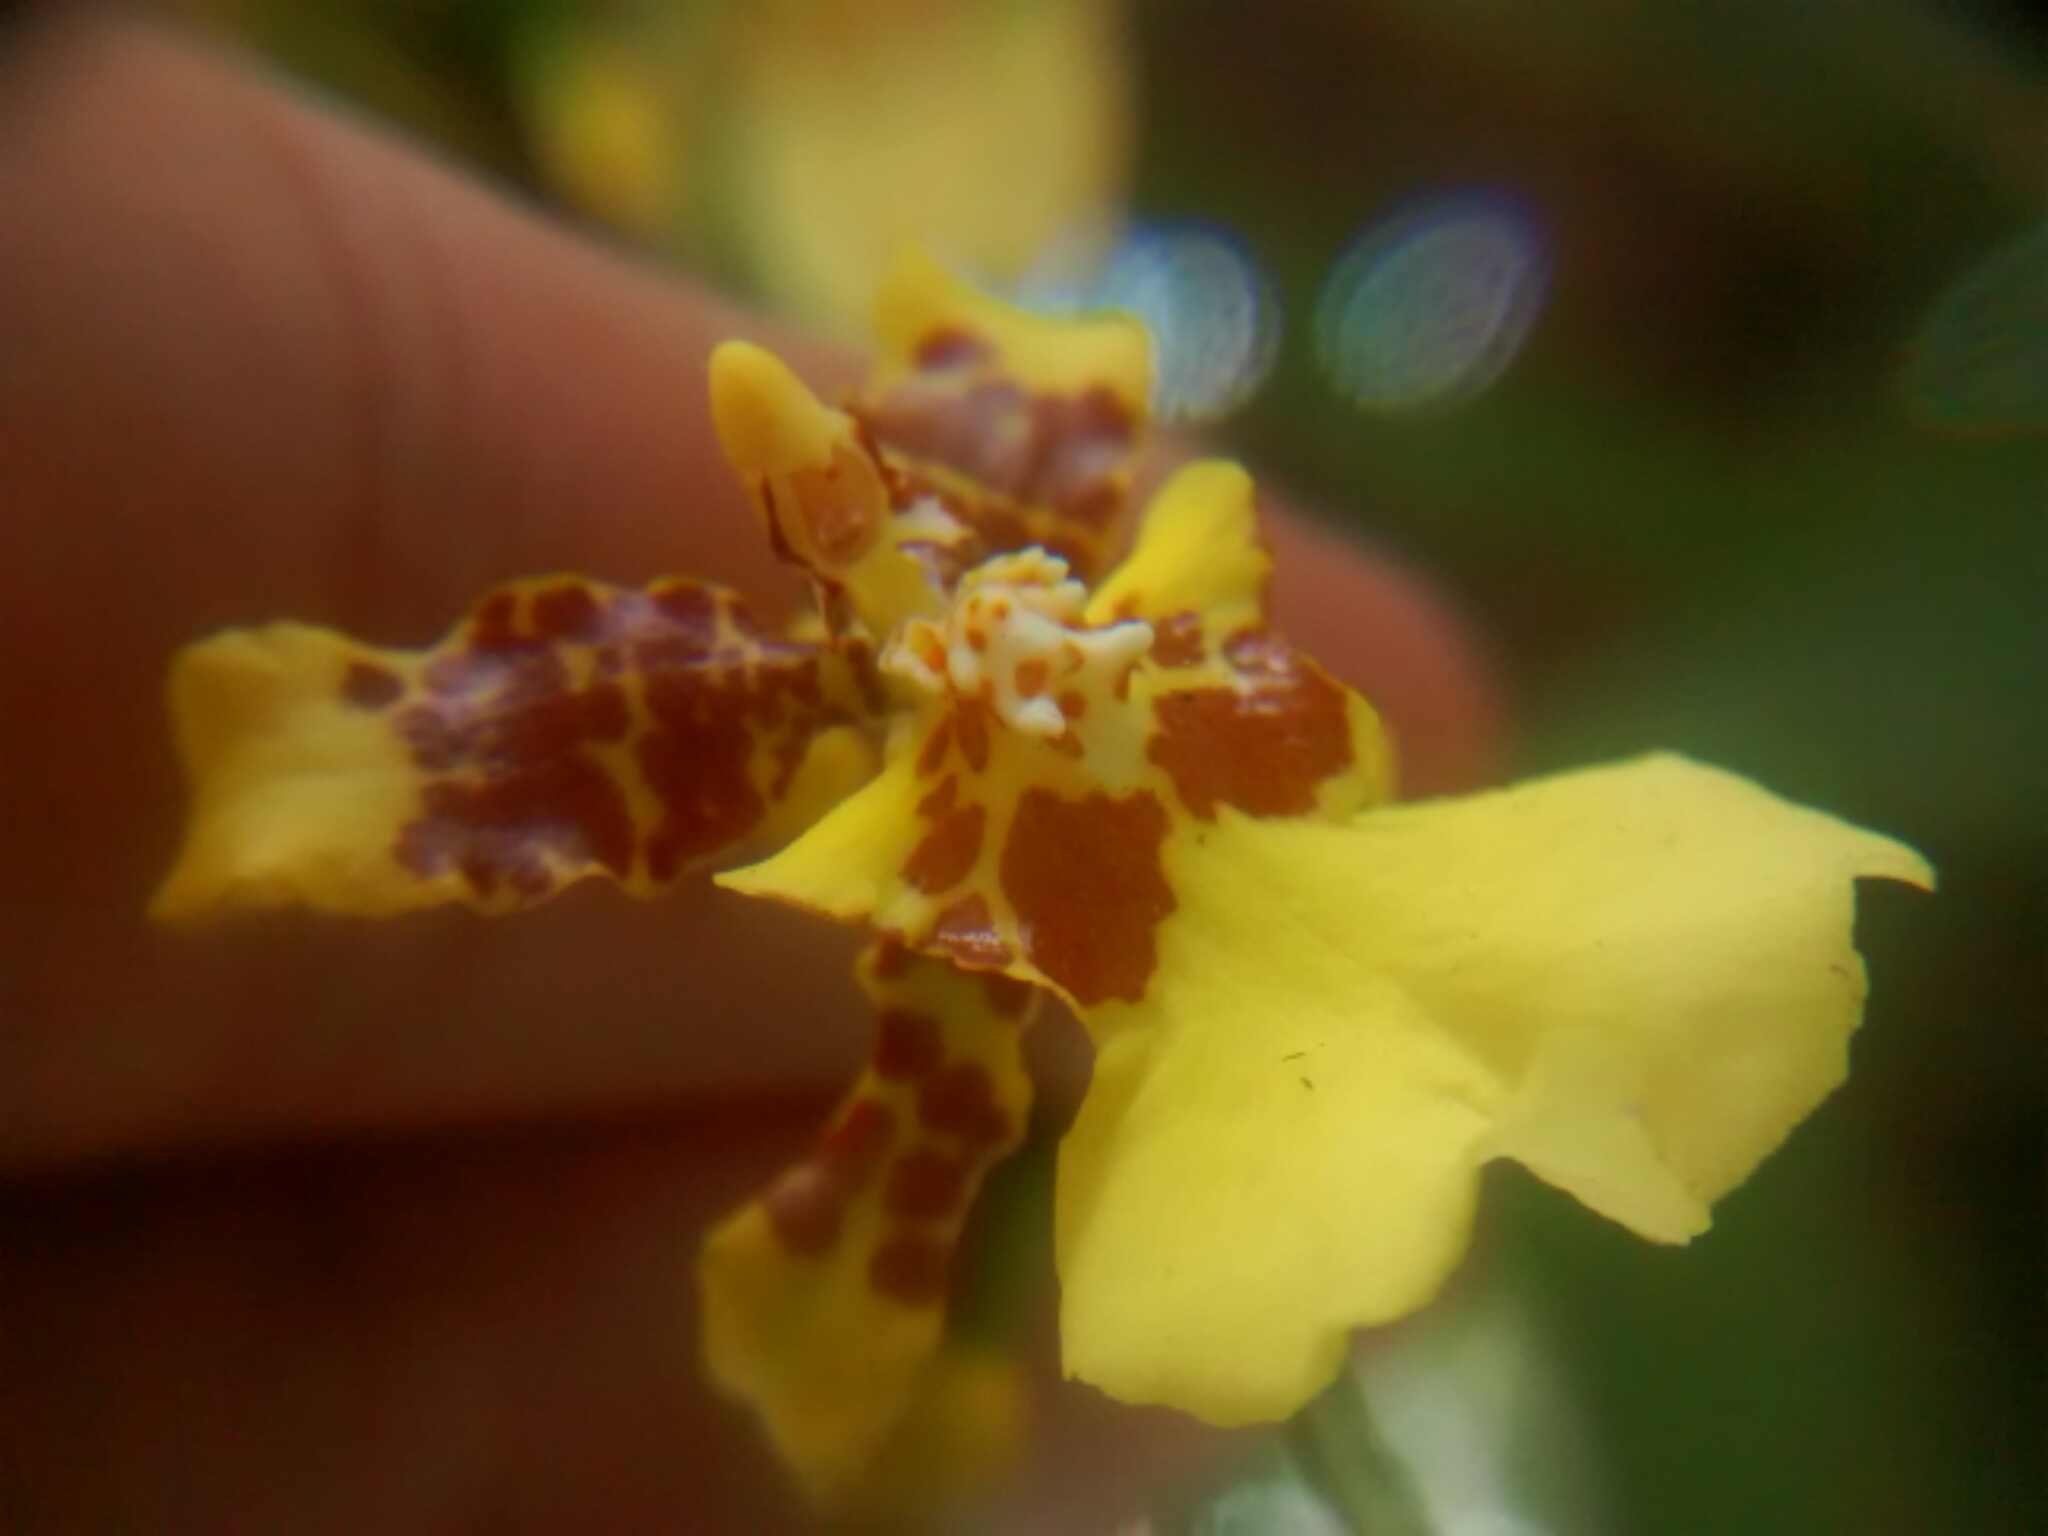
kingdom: Plantae
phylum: Tracheophyta
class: Liliopsida
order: Asparagales
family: Orchidaceae
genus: Oncidium
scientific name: Oncidium sphacelatum
